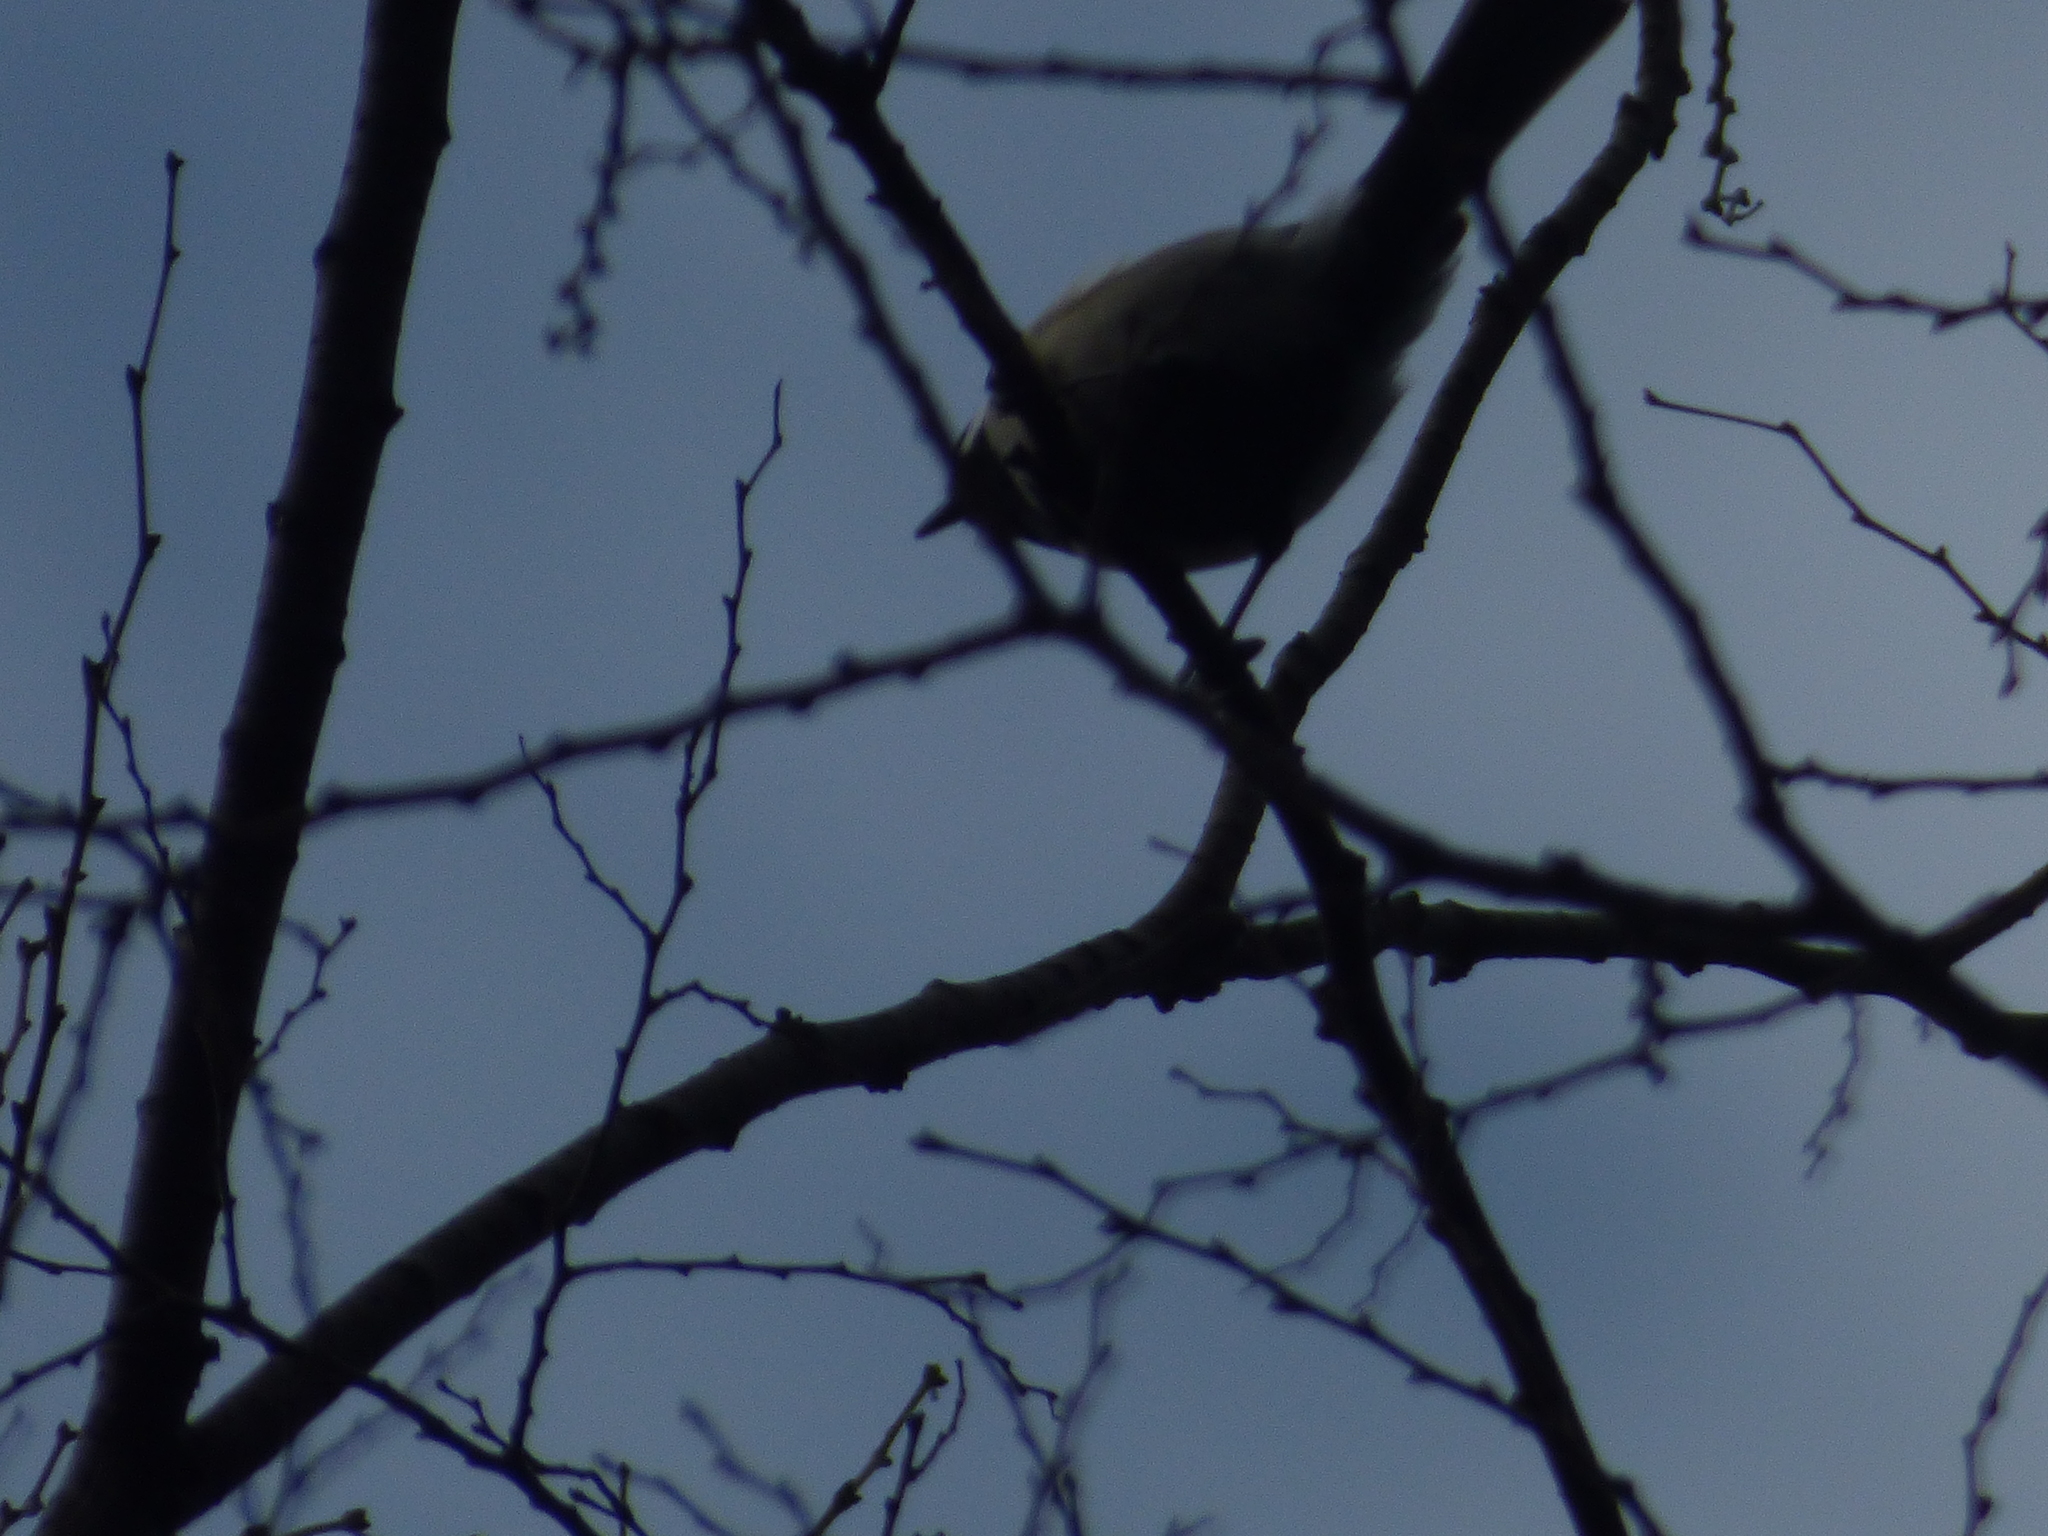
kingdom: Animalia
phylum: Chordata
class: Aves
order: Passeriformes
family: Paridae
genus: Parus
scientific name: Parus minor
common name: Japanese tit
